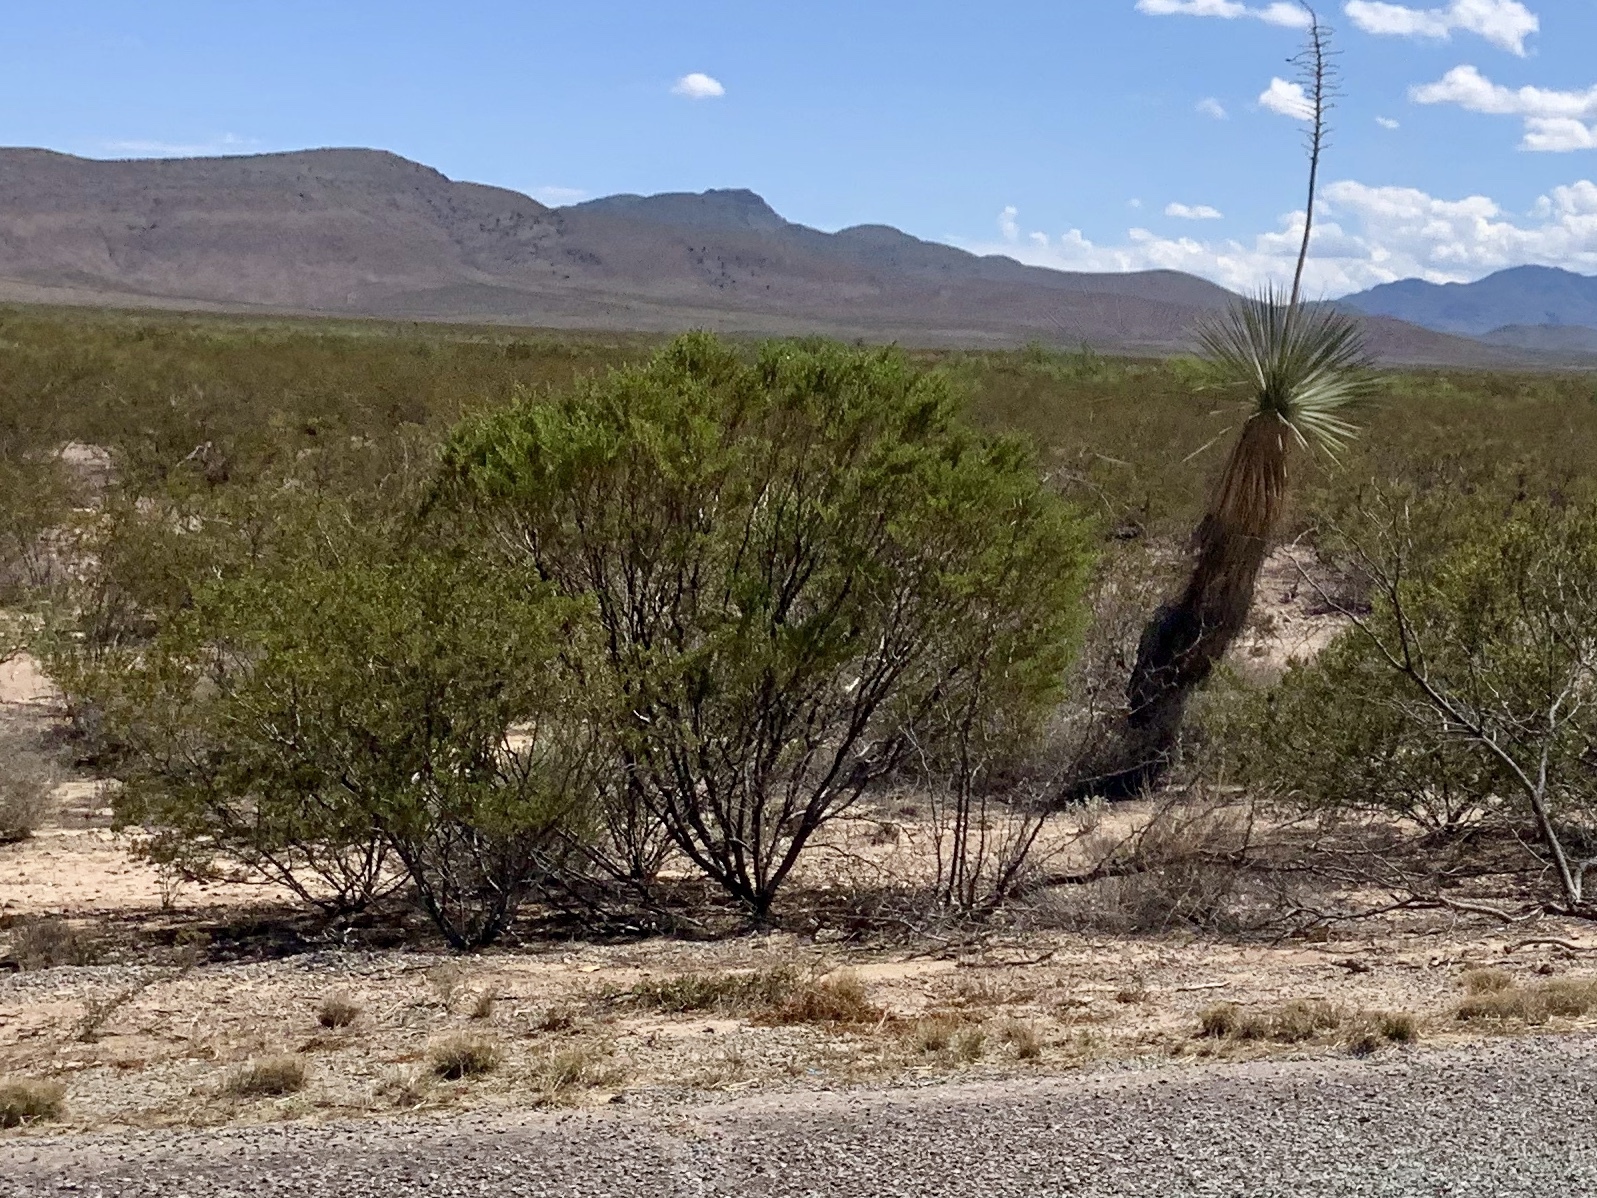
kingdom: Plantae
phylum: Tracheophyta
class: Magnoliopsida
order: Zygophyllales
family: Zygophyllaceae
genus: Larrea
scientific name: Larrea tridentata
